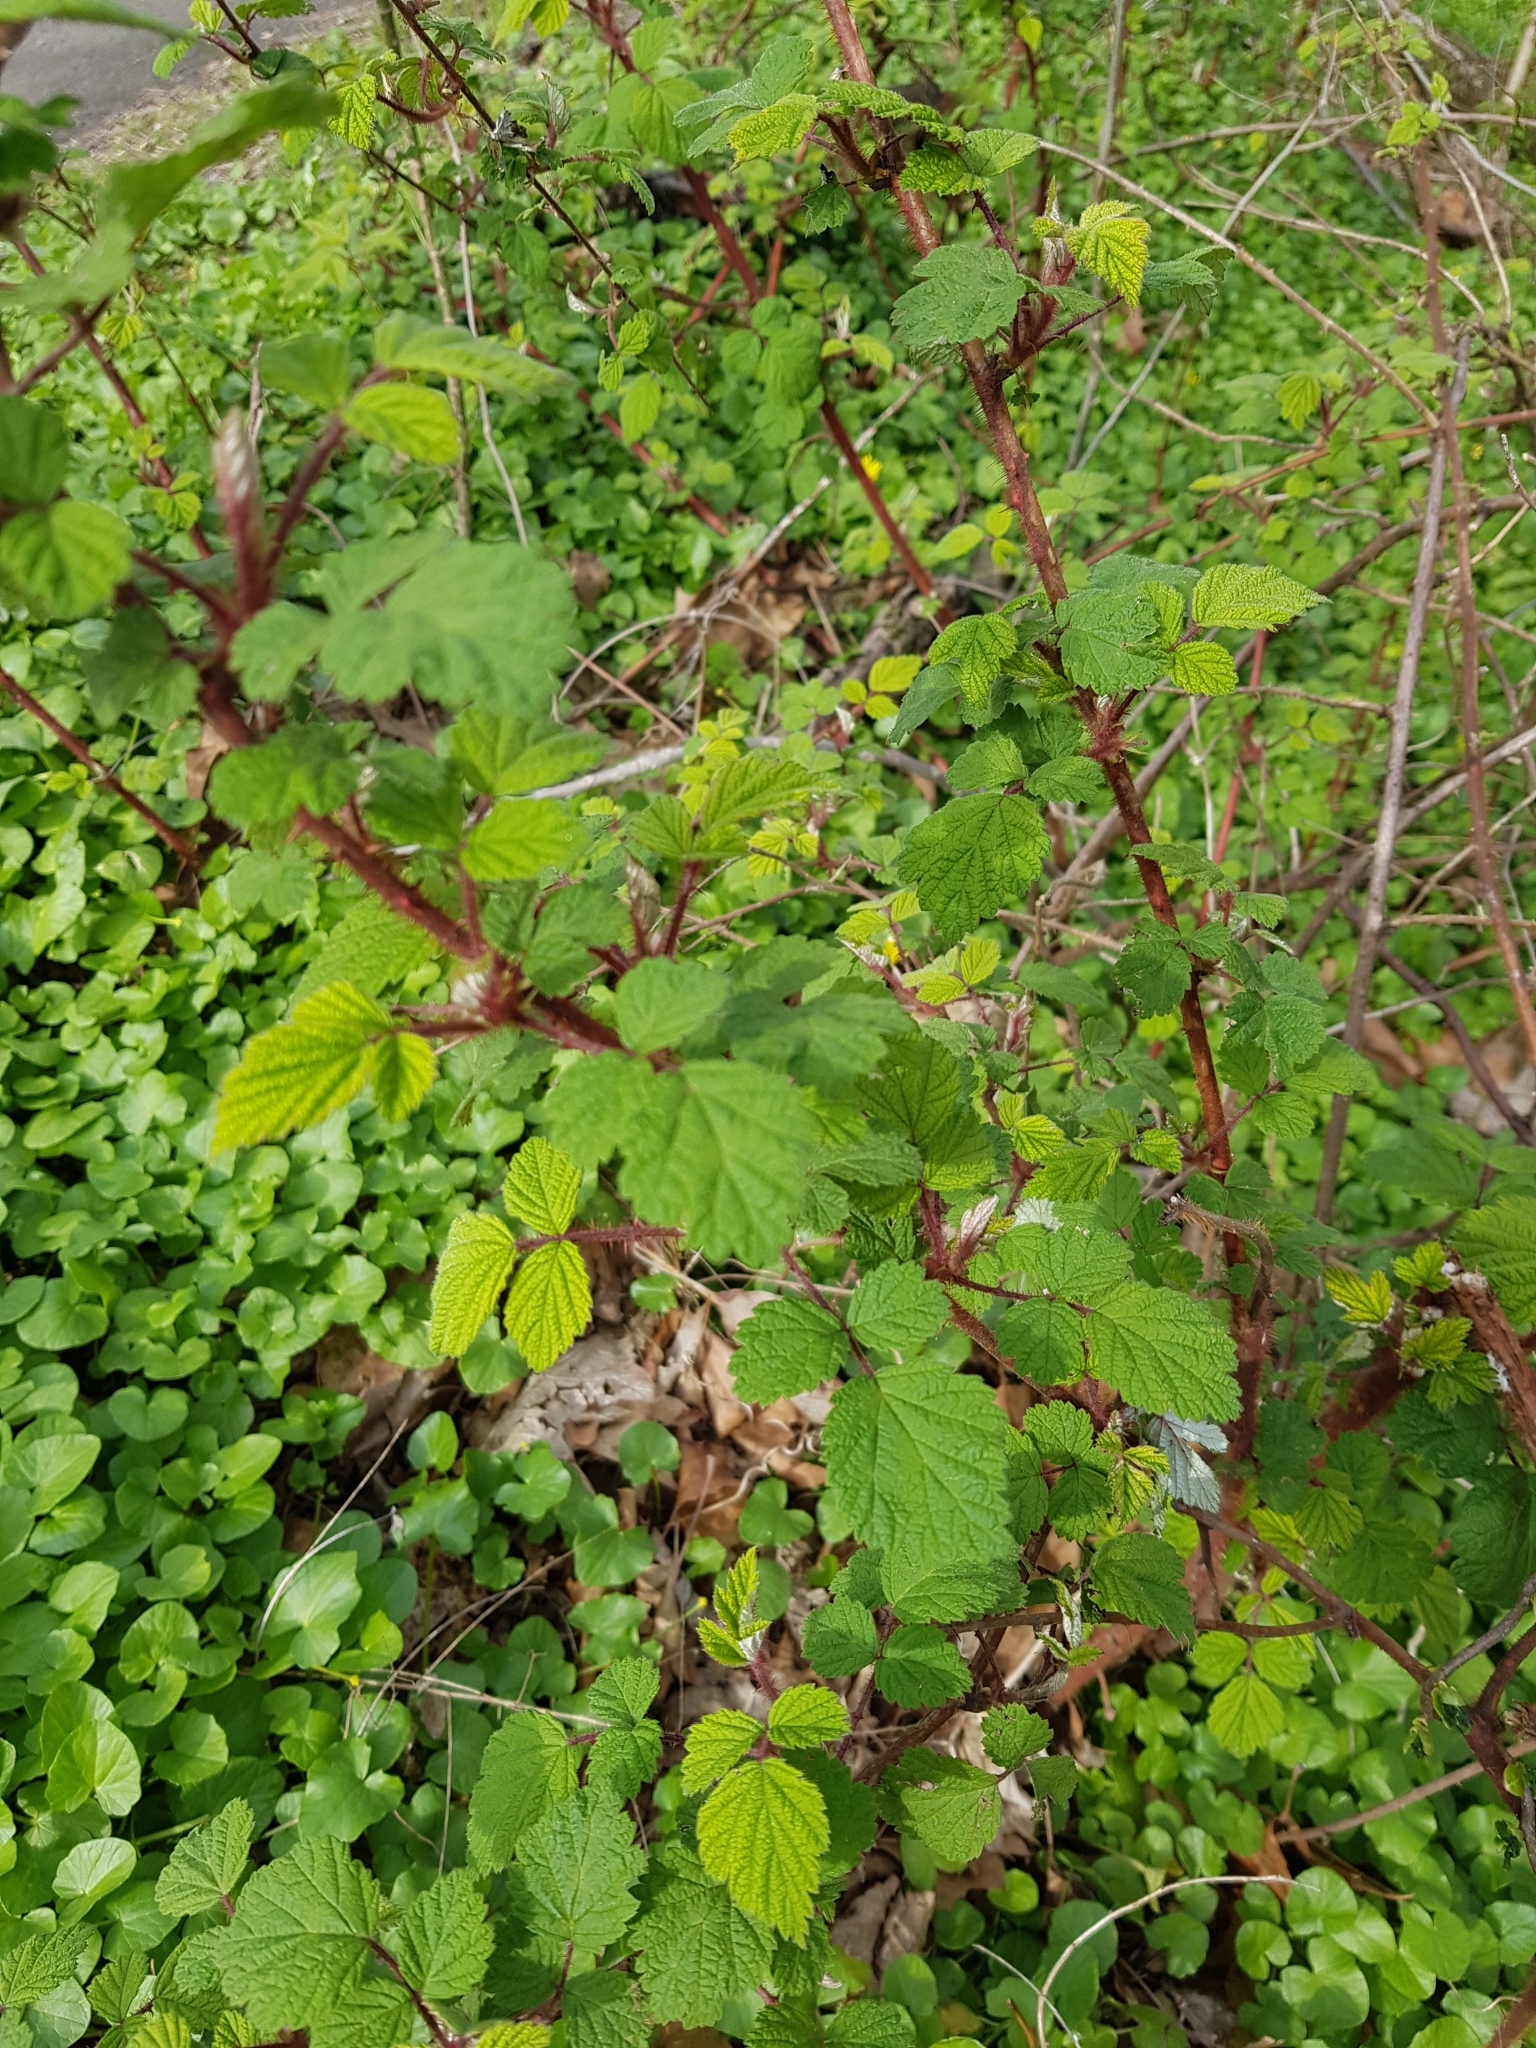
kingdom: Plantae
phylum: Tracheophyta
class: Magnoliopsida
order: Rosales
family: Rosaceae
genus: Rubus
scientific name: Rubus phoenicolasius
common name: Japanese wineberry
